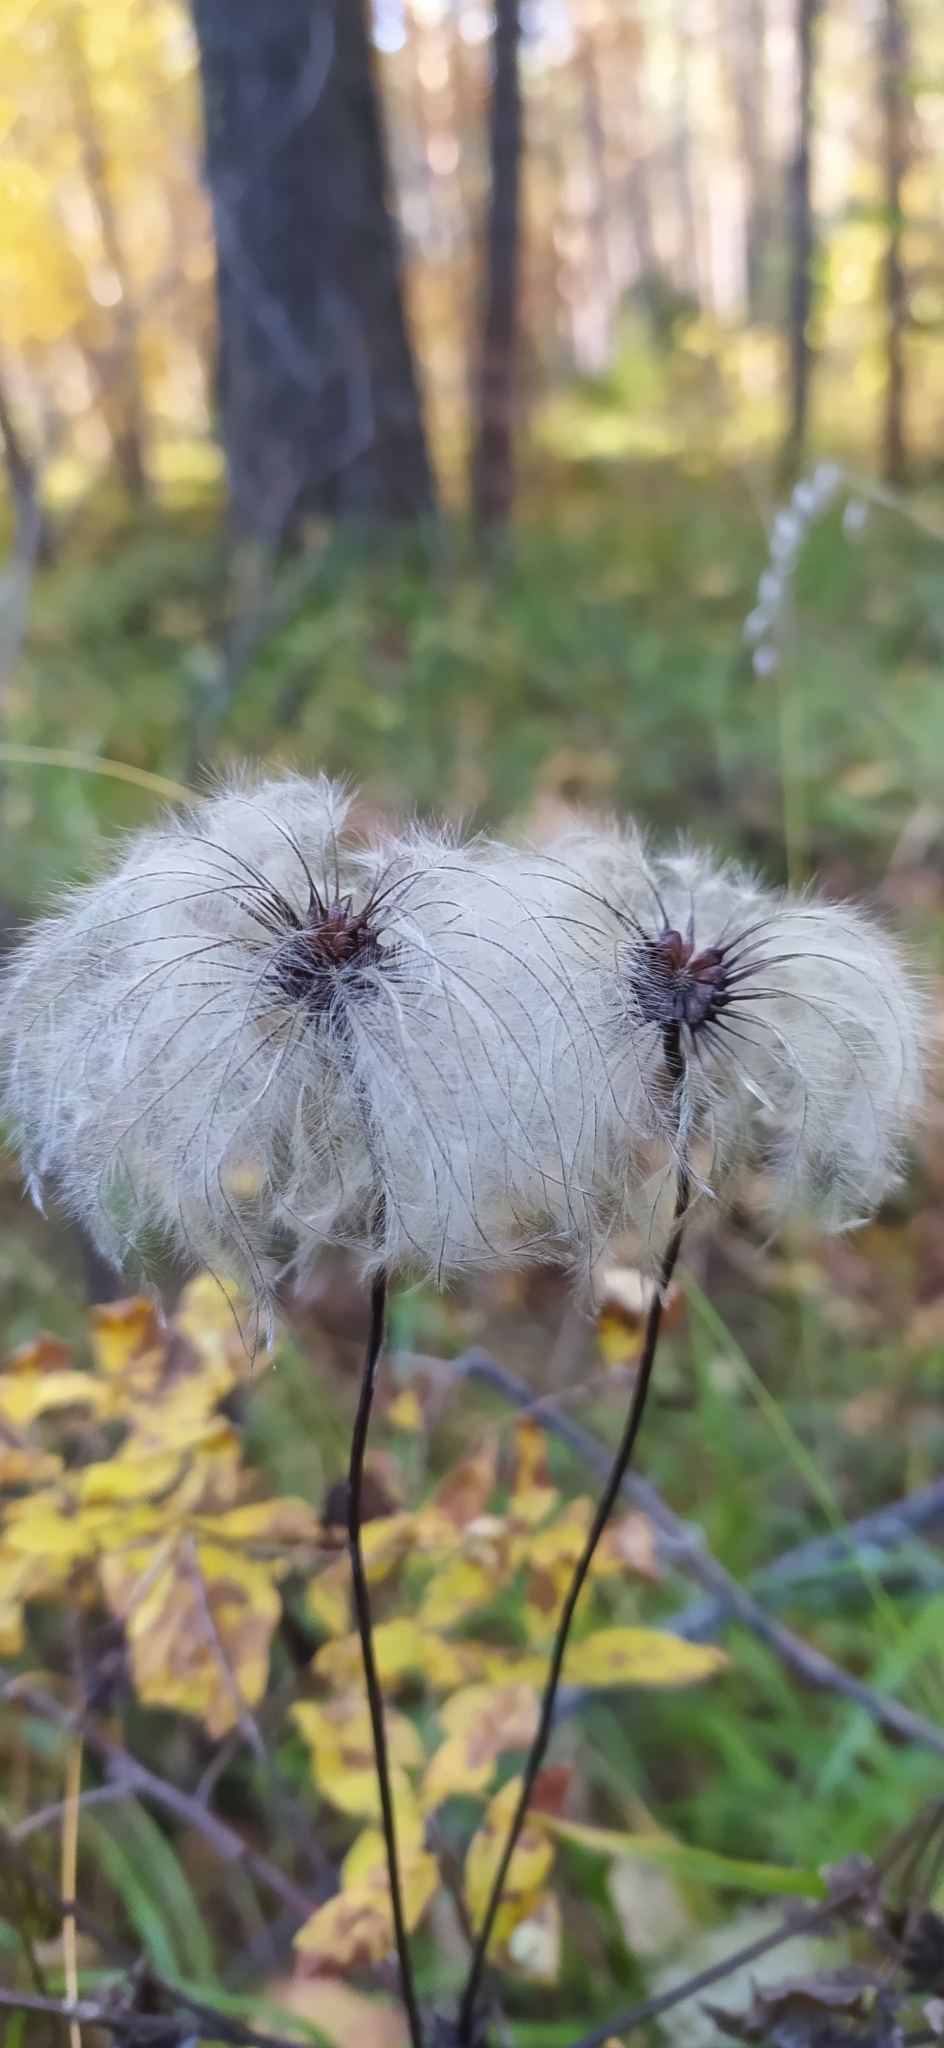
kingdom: Plantae
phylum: Tracheophyta
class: Magnoliopsida
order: Ranunculales
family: Ranunculaceae
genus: Clematis
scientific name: Clematis sibirica
